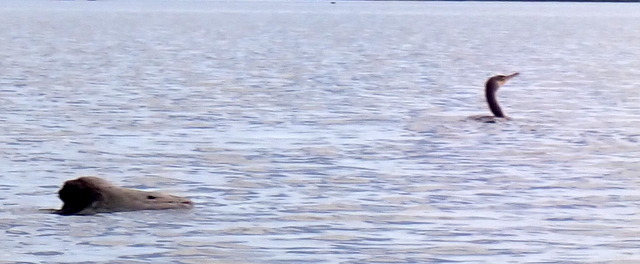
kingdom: Animalia
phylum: Chordata
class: Aves
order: Suliformes
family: Phalacrocoracidae
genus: Phalacrocorax
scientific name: Phalacrocorax auritus
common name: Double-crested cormorant
